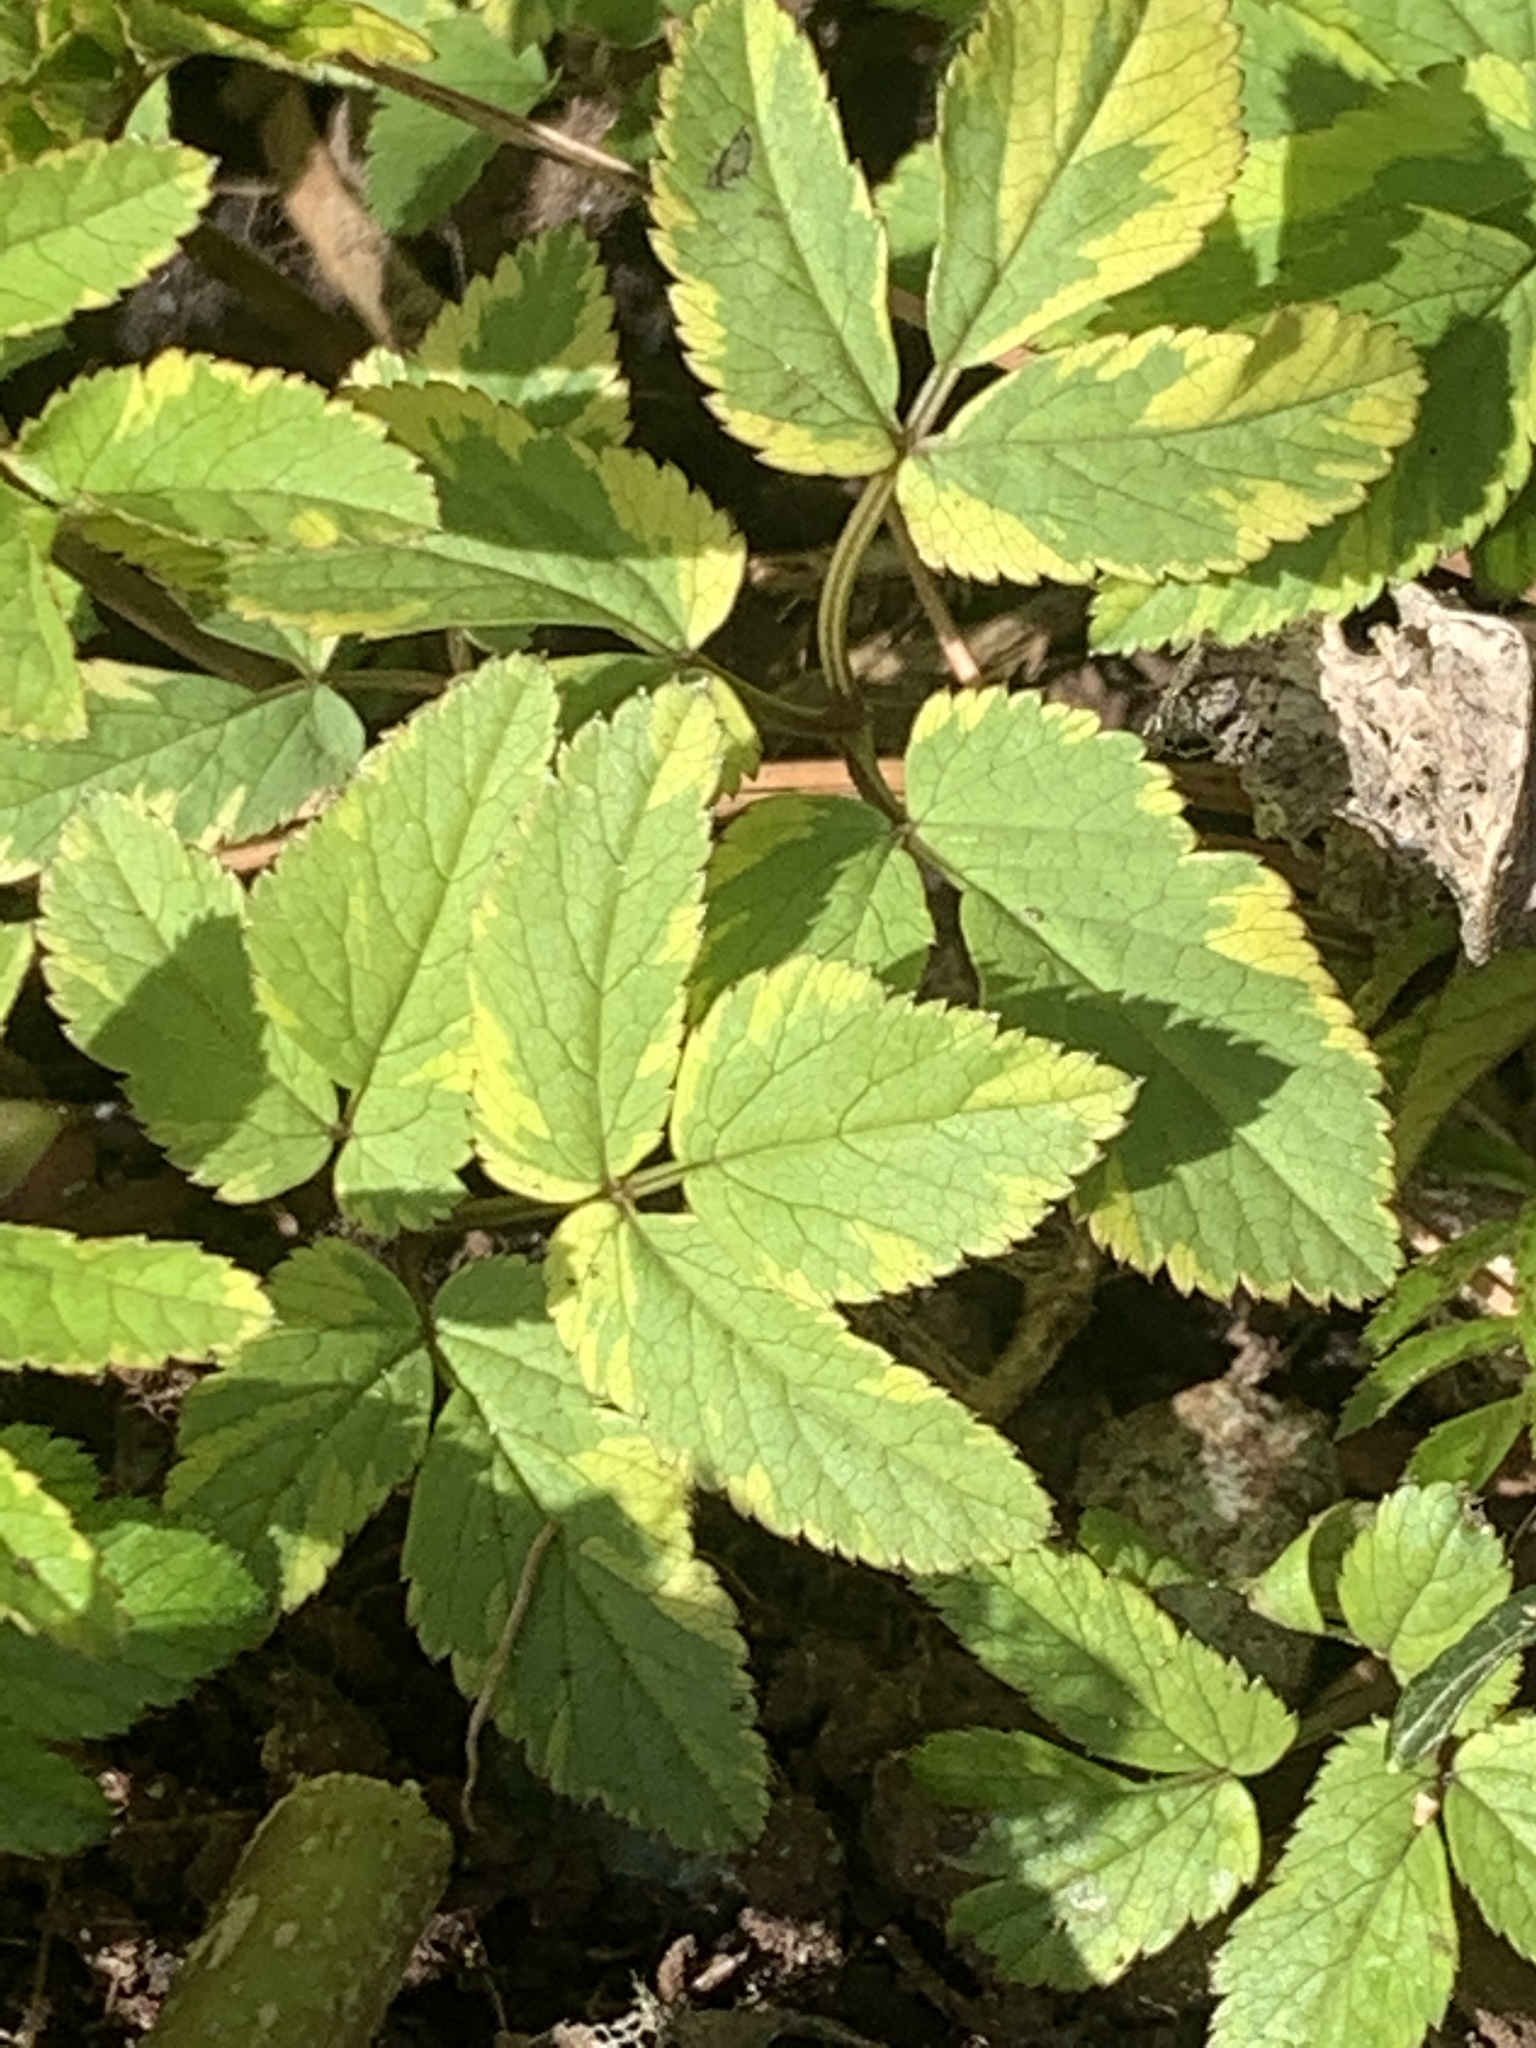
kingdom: Plantae
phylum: Tracheophyta
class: Magnoliopsida
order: Apiales
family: Apiaceae
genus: Aegopodium
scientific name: Aegopodium podagraria
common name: Ground-elder
